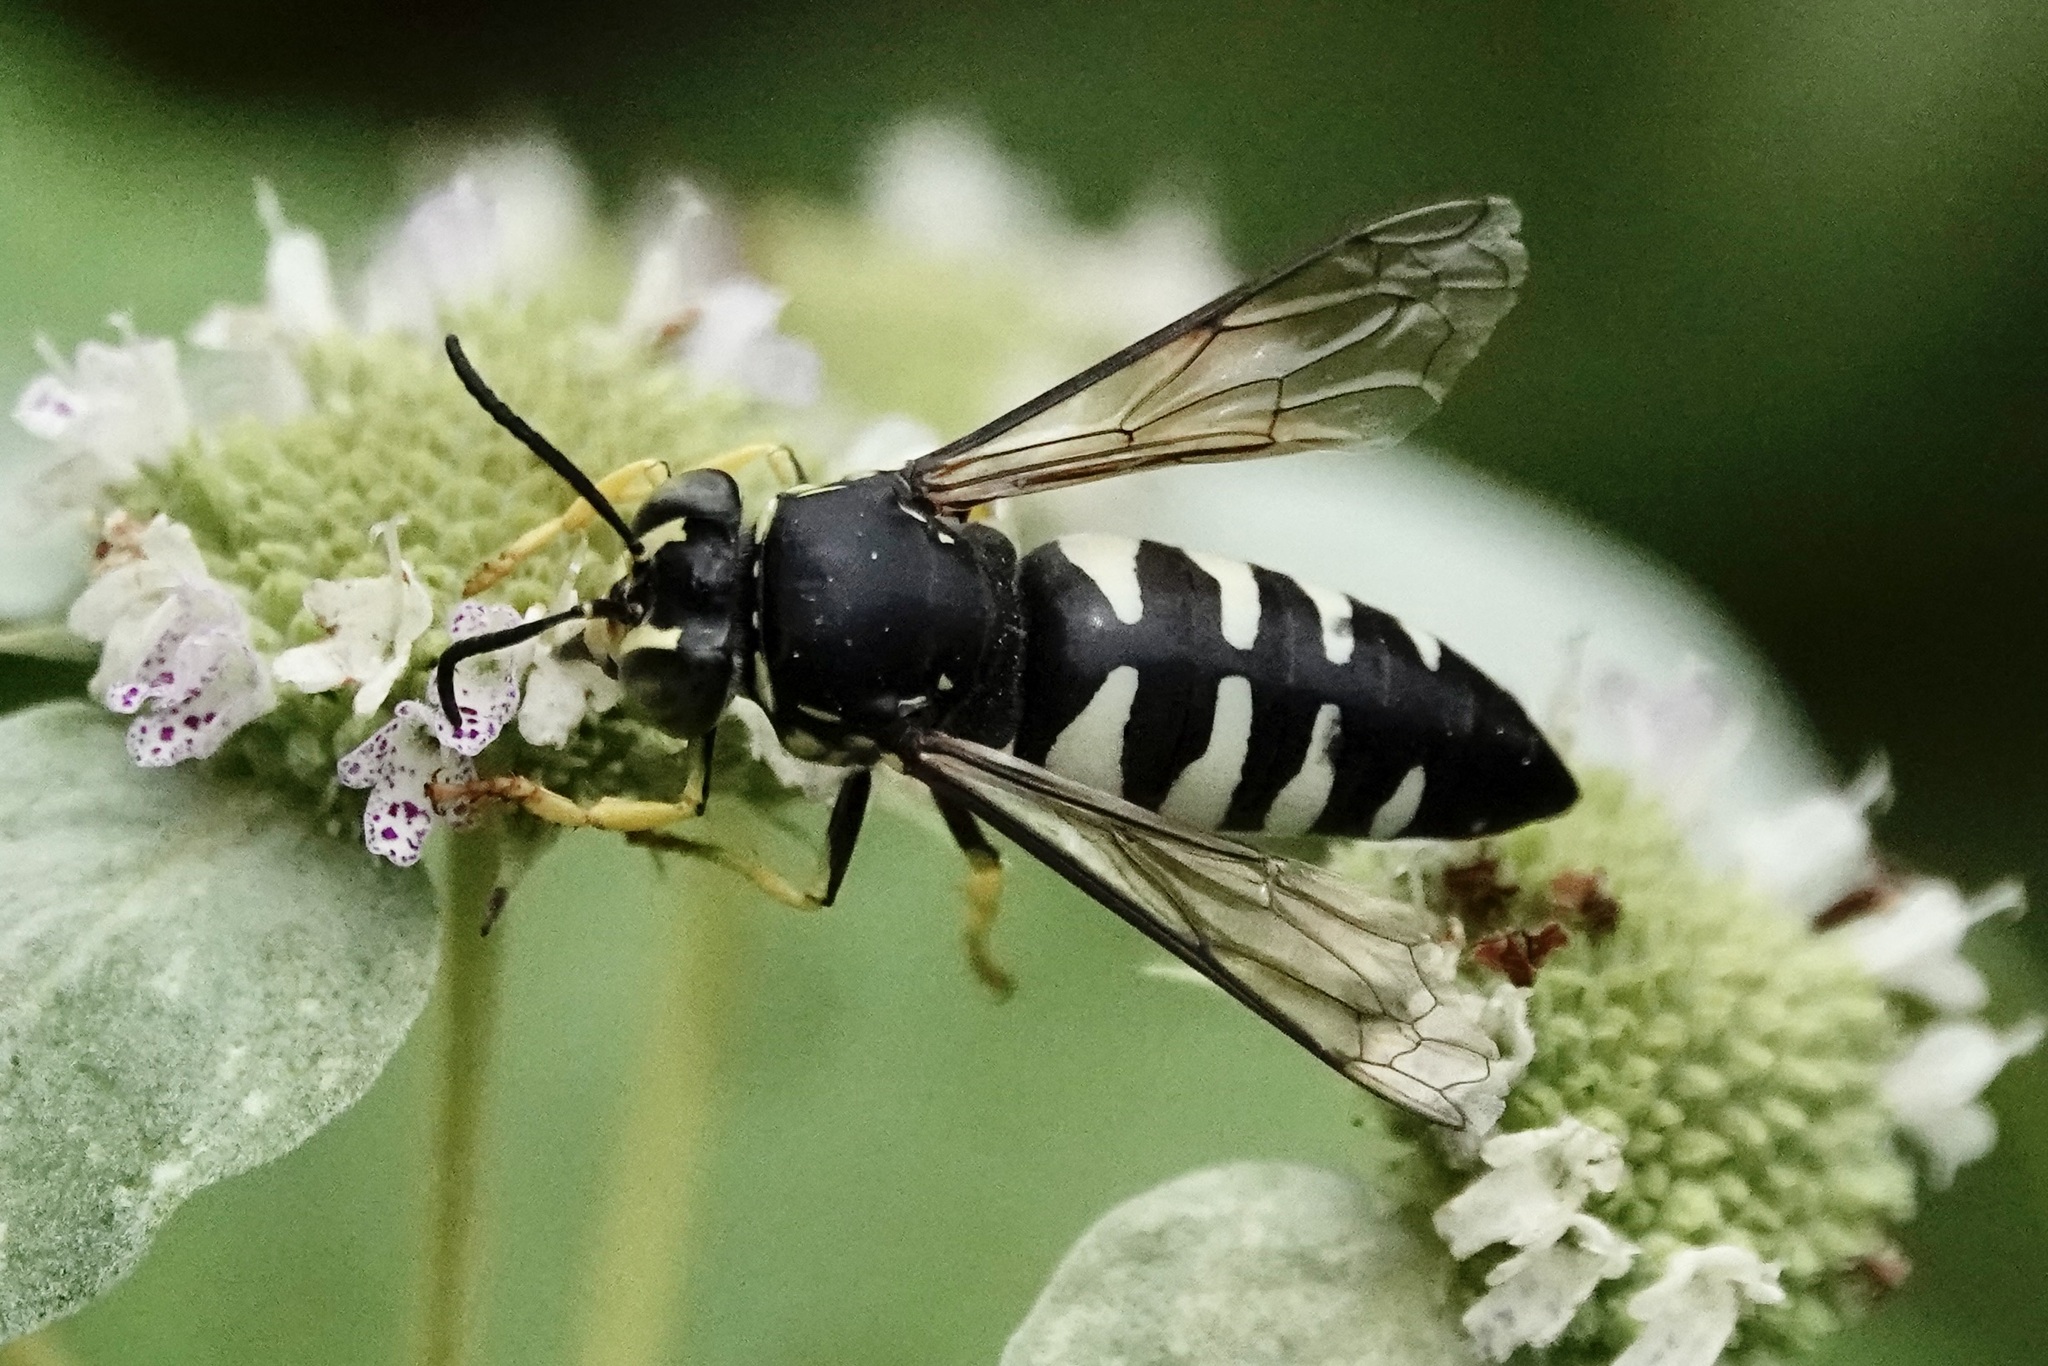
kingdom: Animalia
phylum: Arthropoda
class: Insecta
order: Hymenoptera
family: Crabronidae
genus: Bicyrtes
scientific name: Bicyrtes quadrifasciatus
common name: Four-banded stink bug hunter wasp
